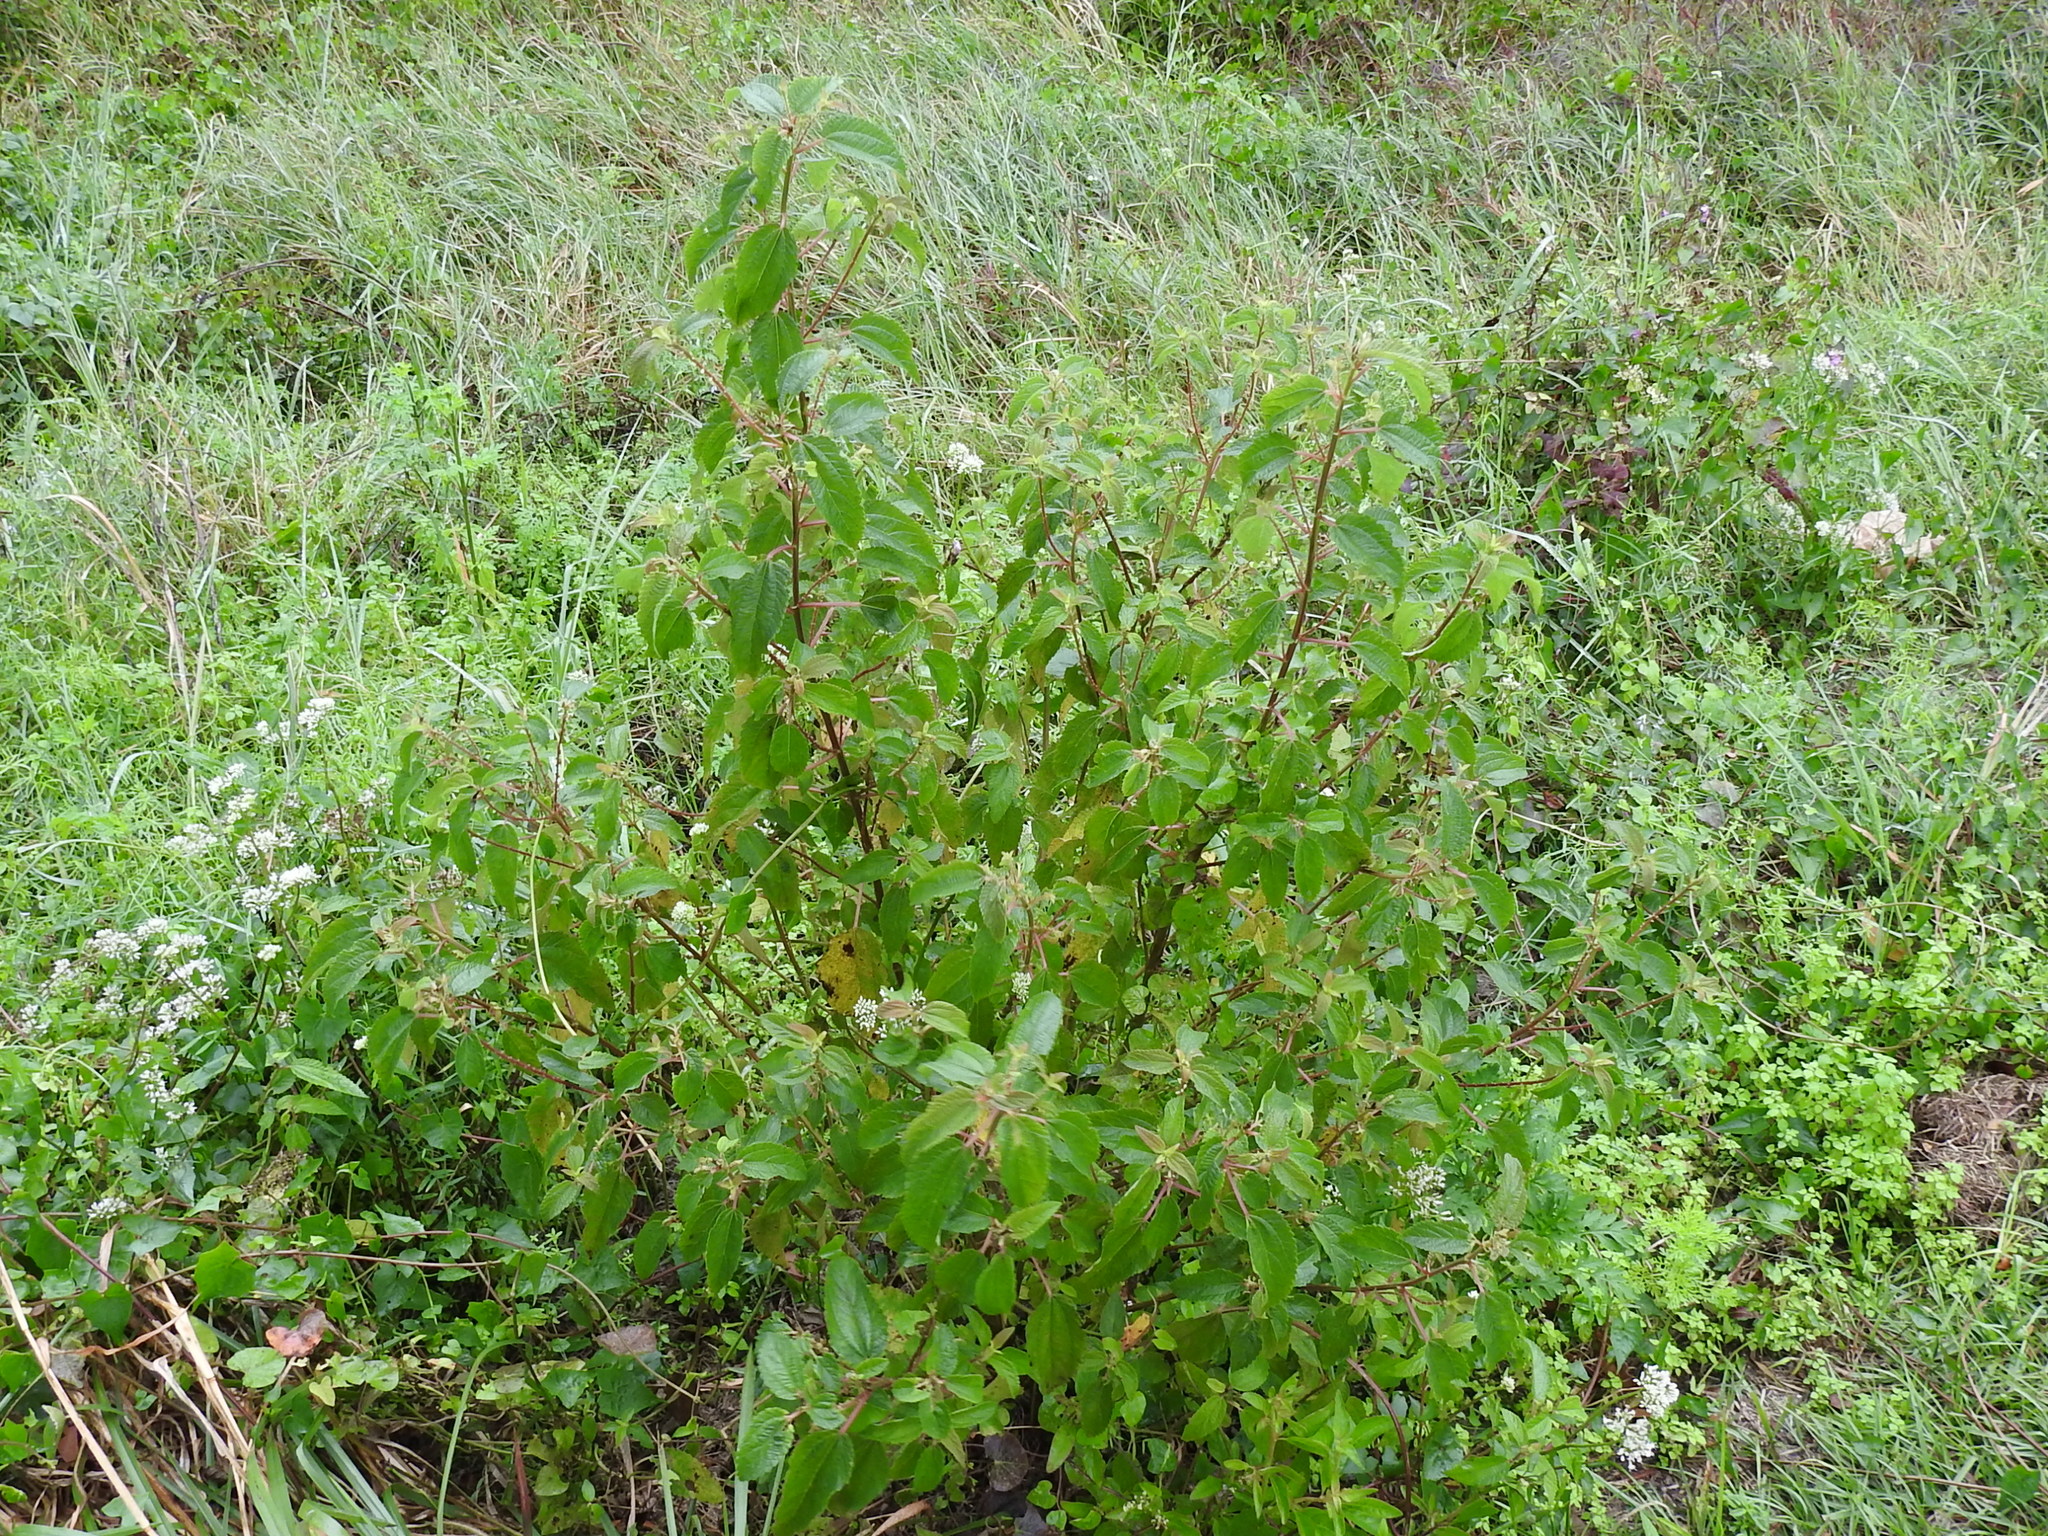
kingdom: Plantae
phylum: Tracheophyta
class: Magnoliopsida
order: Rosales
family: Urticaceae
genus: Boehmeria
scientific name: Boehmeria cylindrica
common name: Bog-hemp
